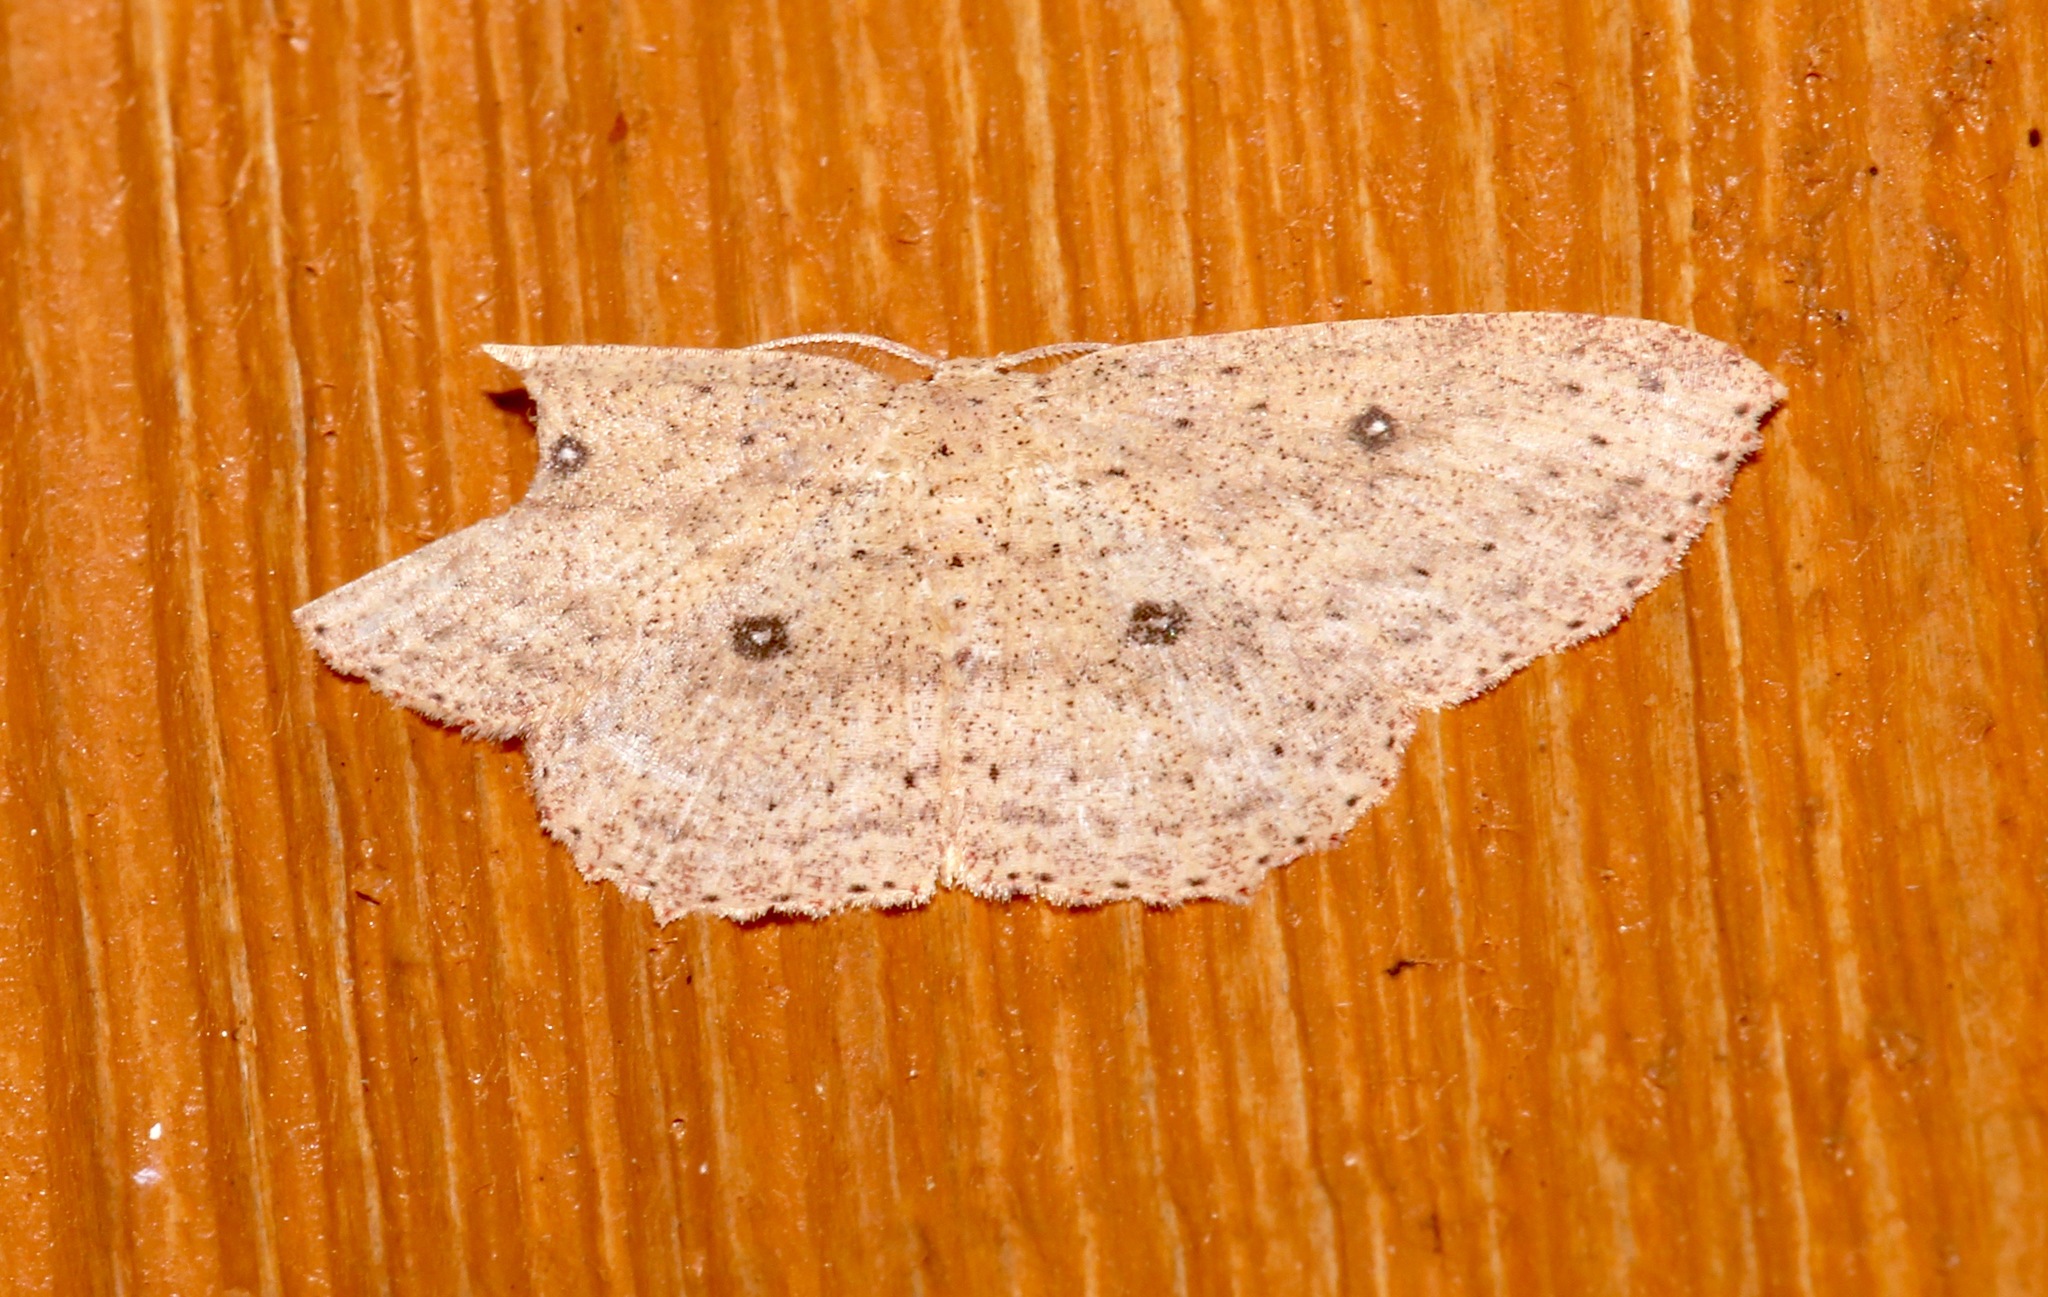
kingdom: Animalia
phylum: Arthropoda
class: Insecta
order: Lepidoptera
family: Geometridae
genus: Cyclophora
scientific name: Cyclophora myrtaria
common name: Waxmyrtle wave moth
